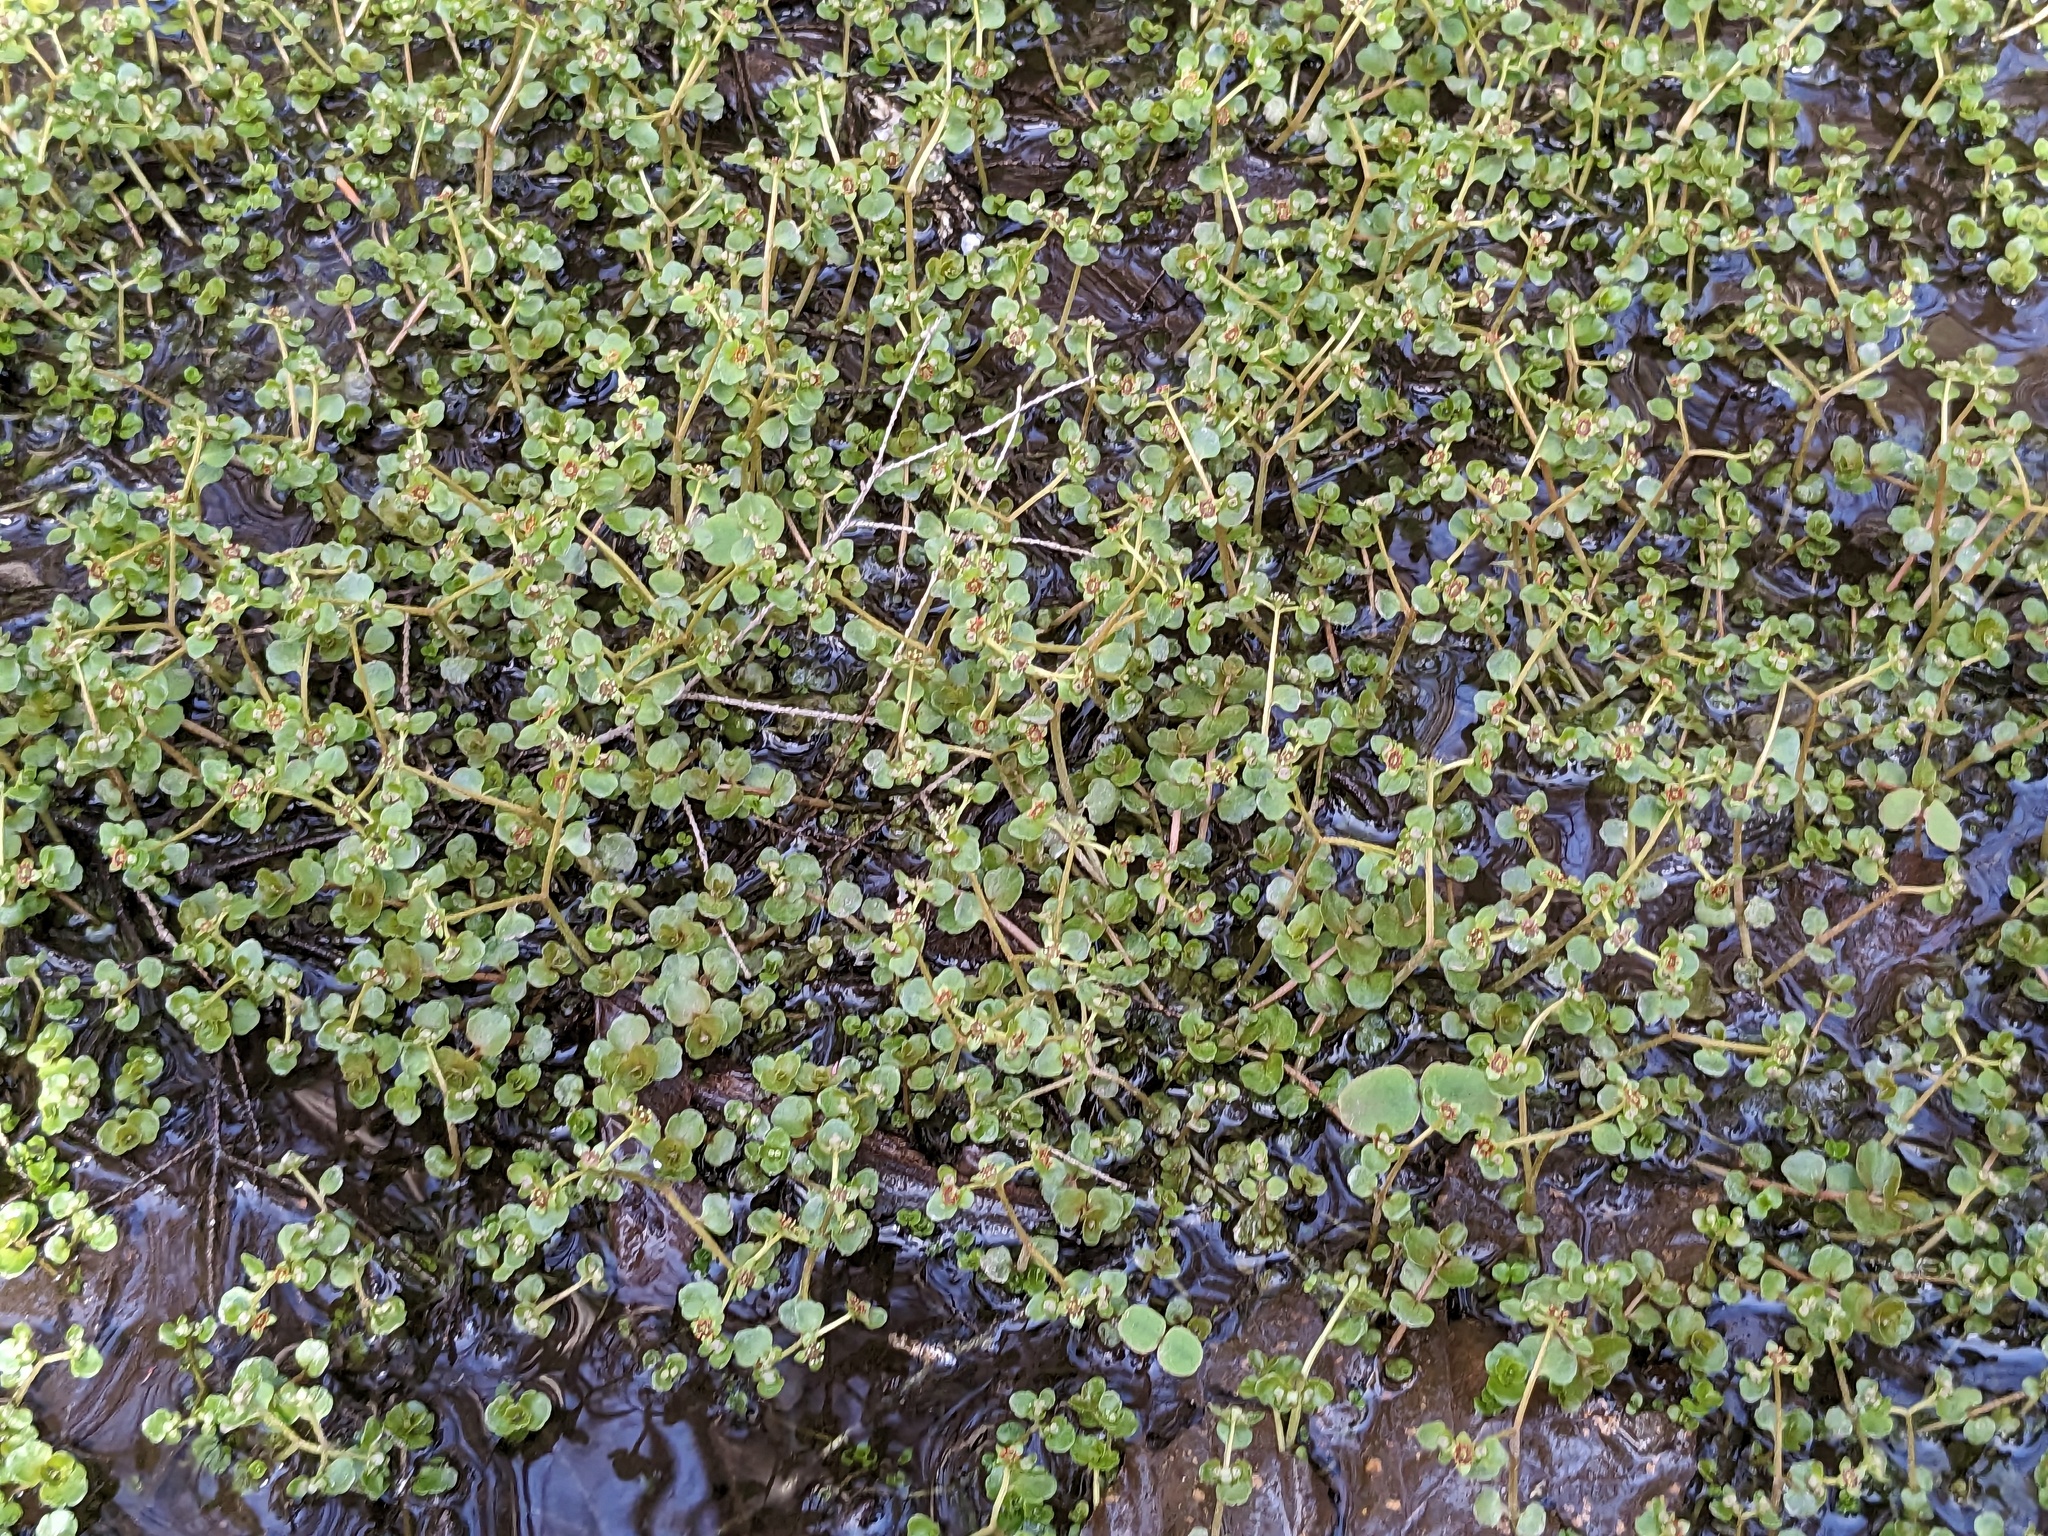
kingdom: Plantae
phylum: Tracheophyta
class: Magnoliopsida
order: Saxifragales
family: Saxifragaceae
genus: Chrysosplenium
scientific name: Chrysosplenium americanum
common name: American golden-saxifrage
